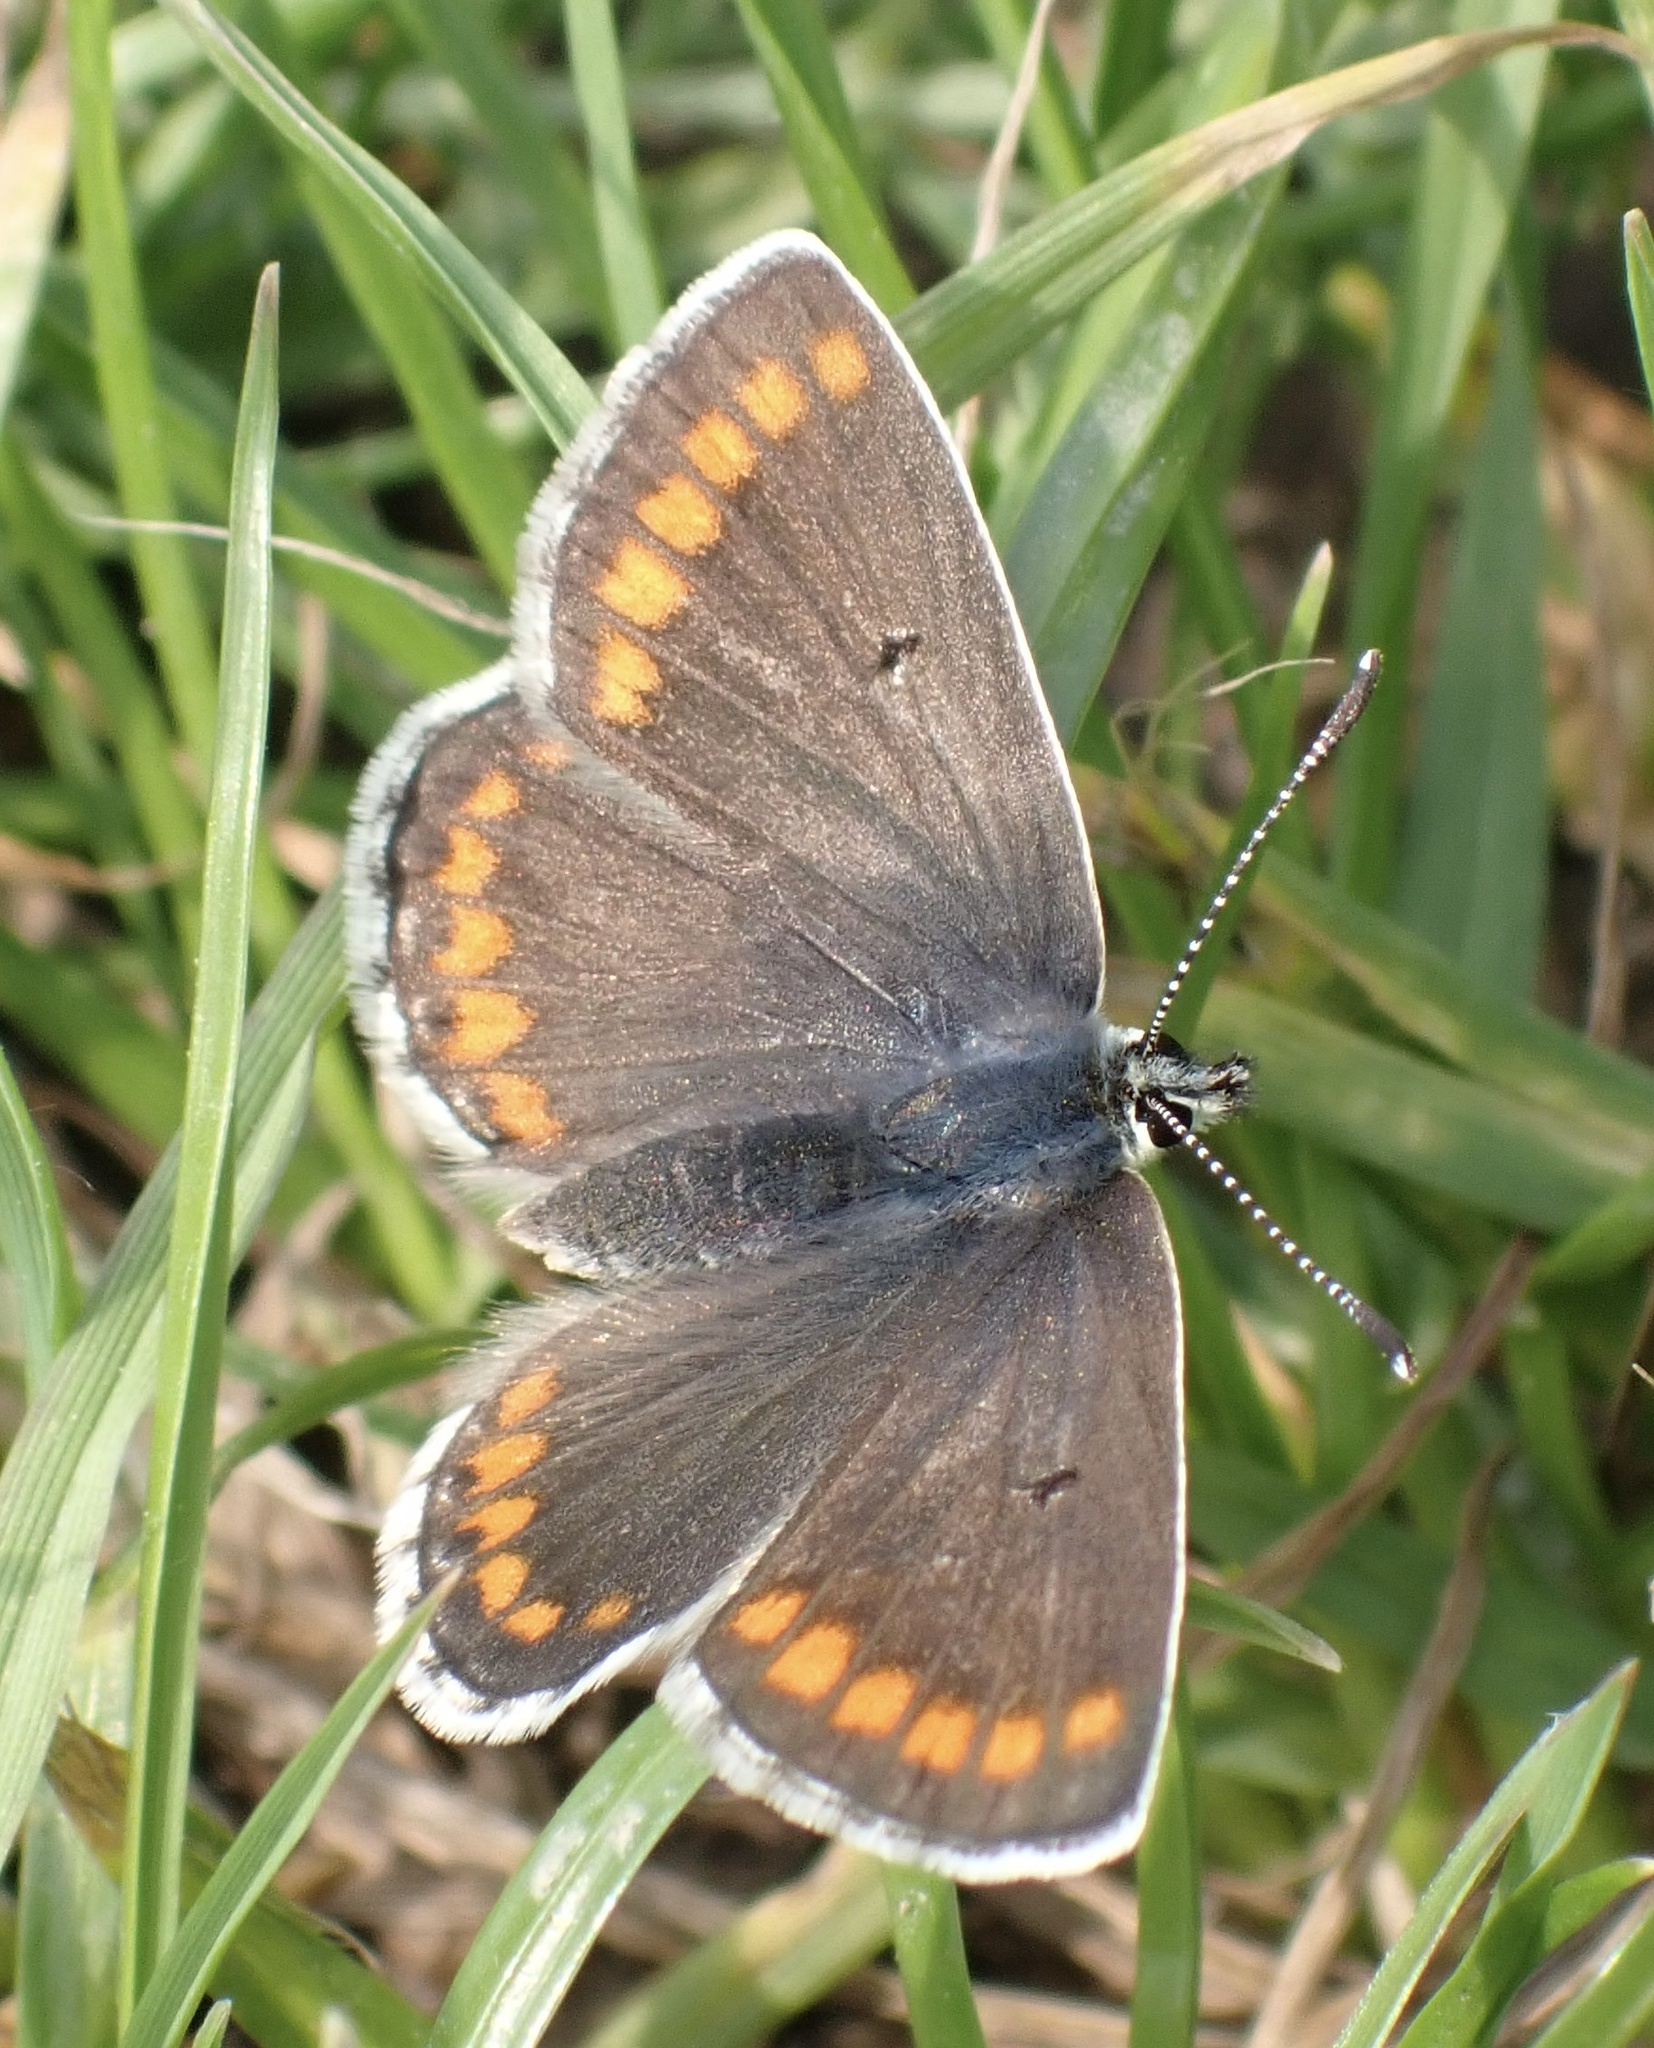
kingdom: Animalia
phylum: Arthropoda
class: Insecta
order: Lepidoptera
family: Lycaenidae
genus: Aricia
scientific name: Aricia agestis
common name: Brown argus
